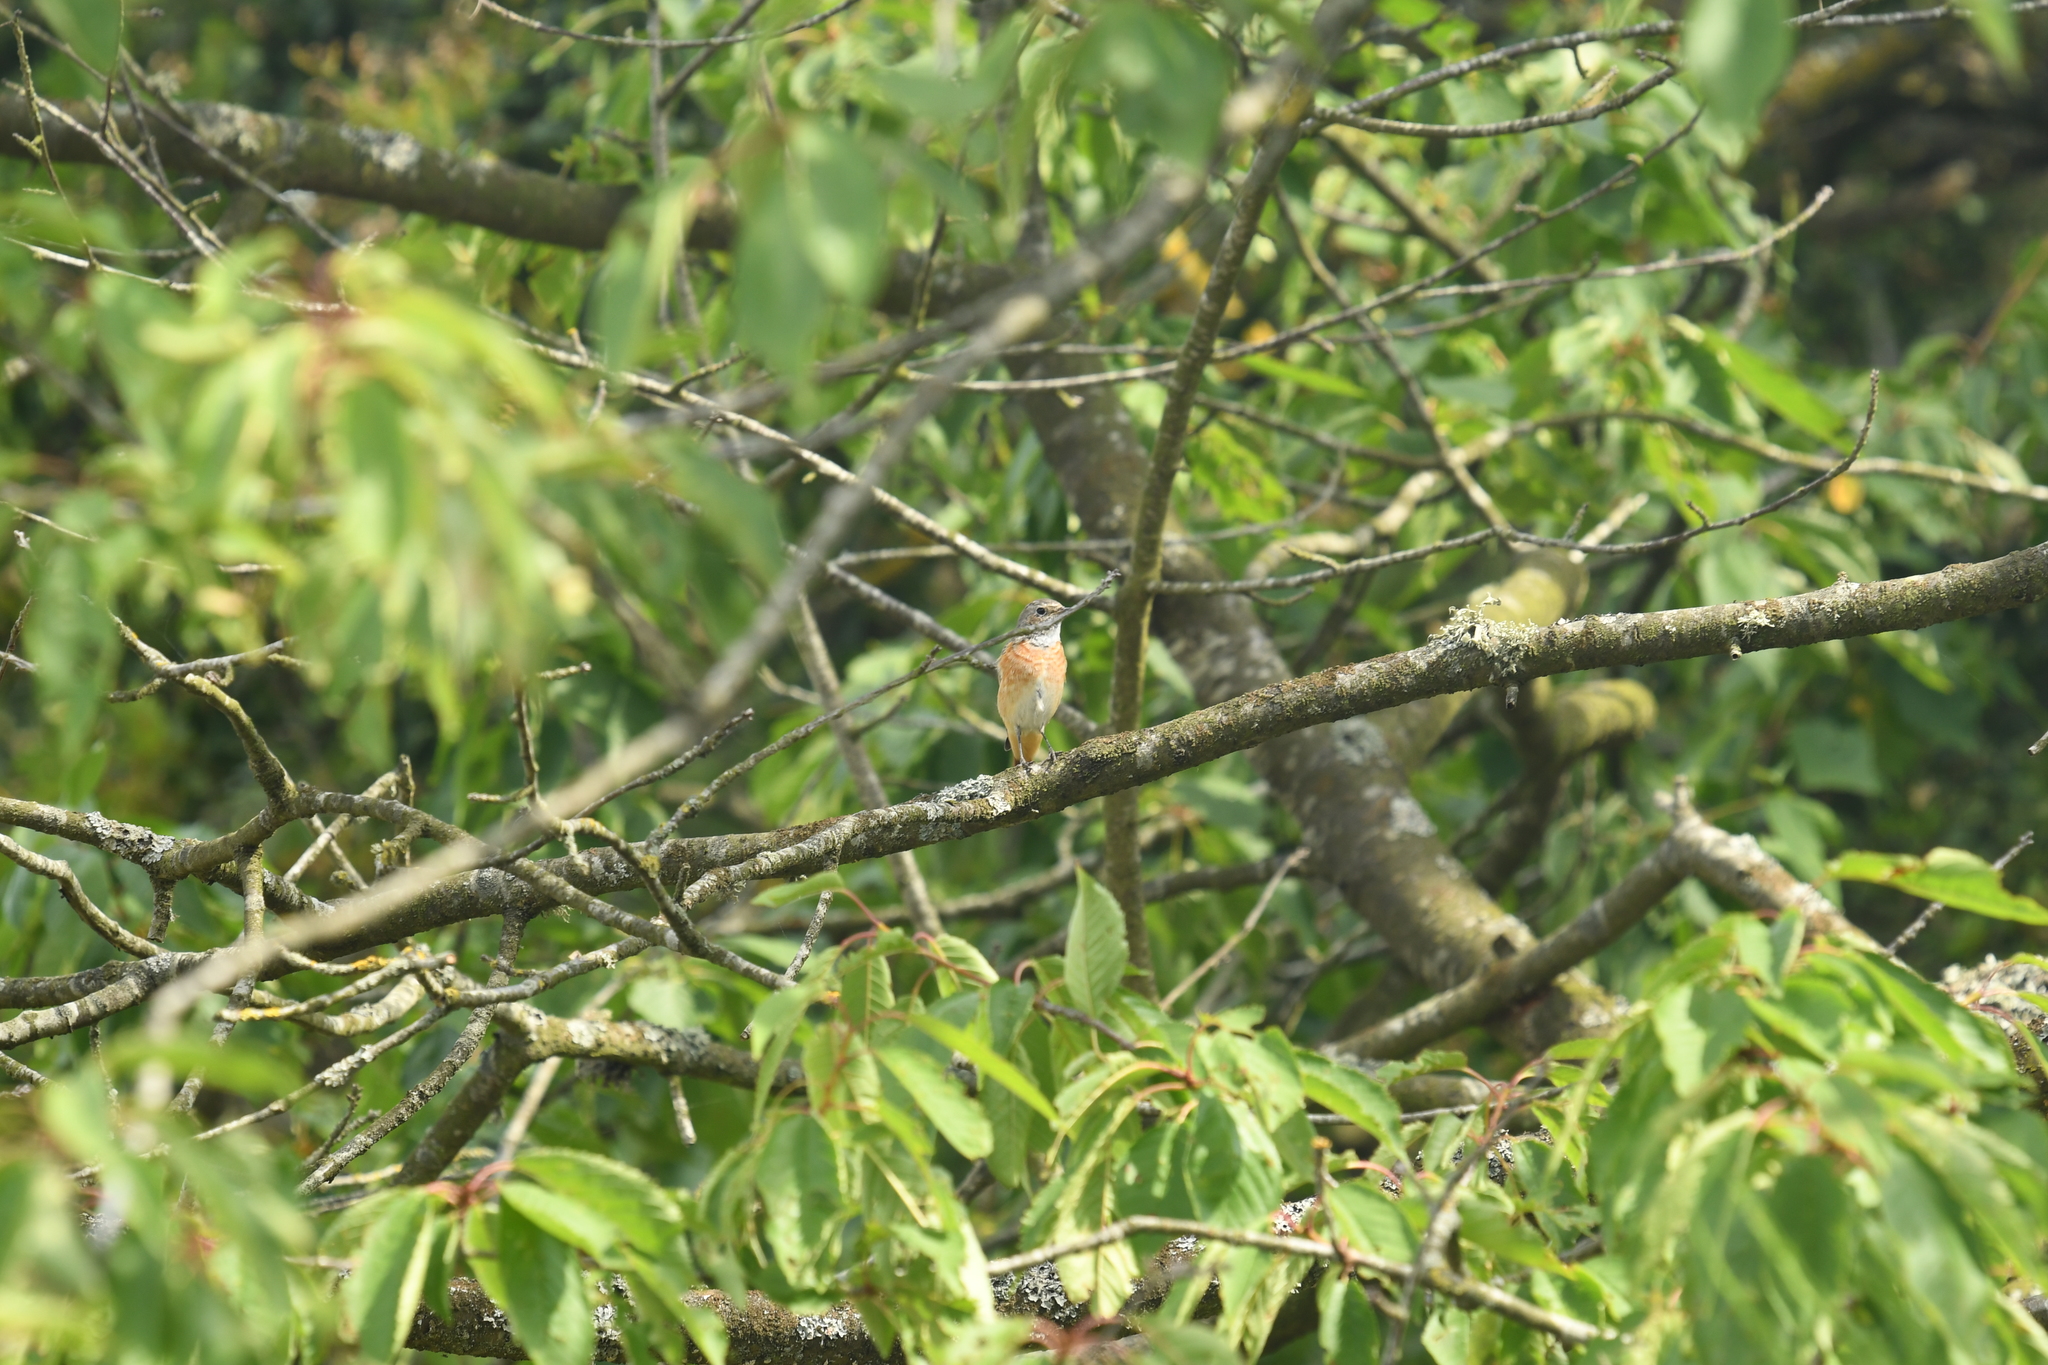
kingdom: Animalia
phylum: Chordata
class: Aves
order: Passeriformes
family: Muscicapidae
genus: Phoenicurus
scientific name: Phoenicurus phoenicurus
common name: Common redstart
